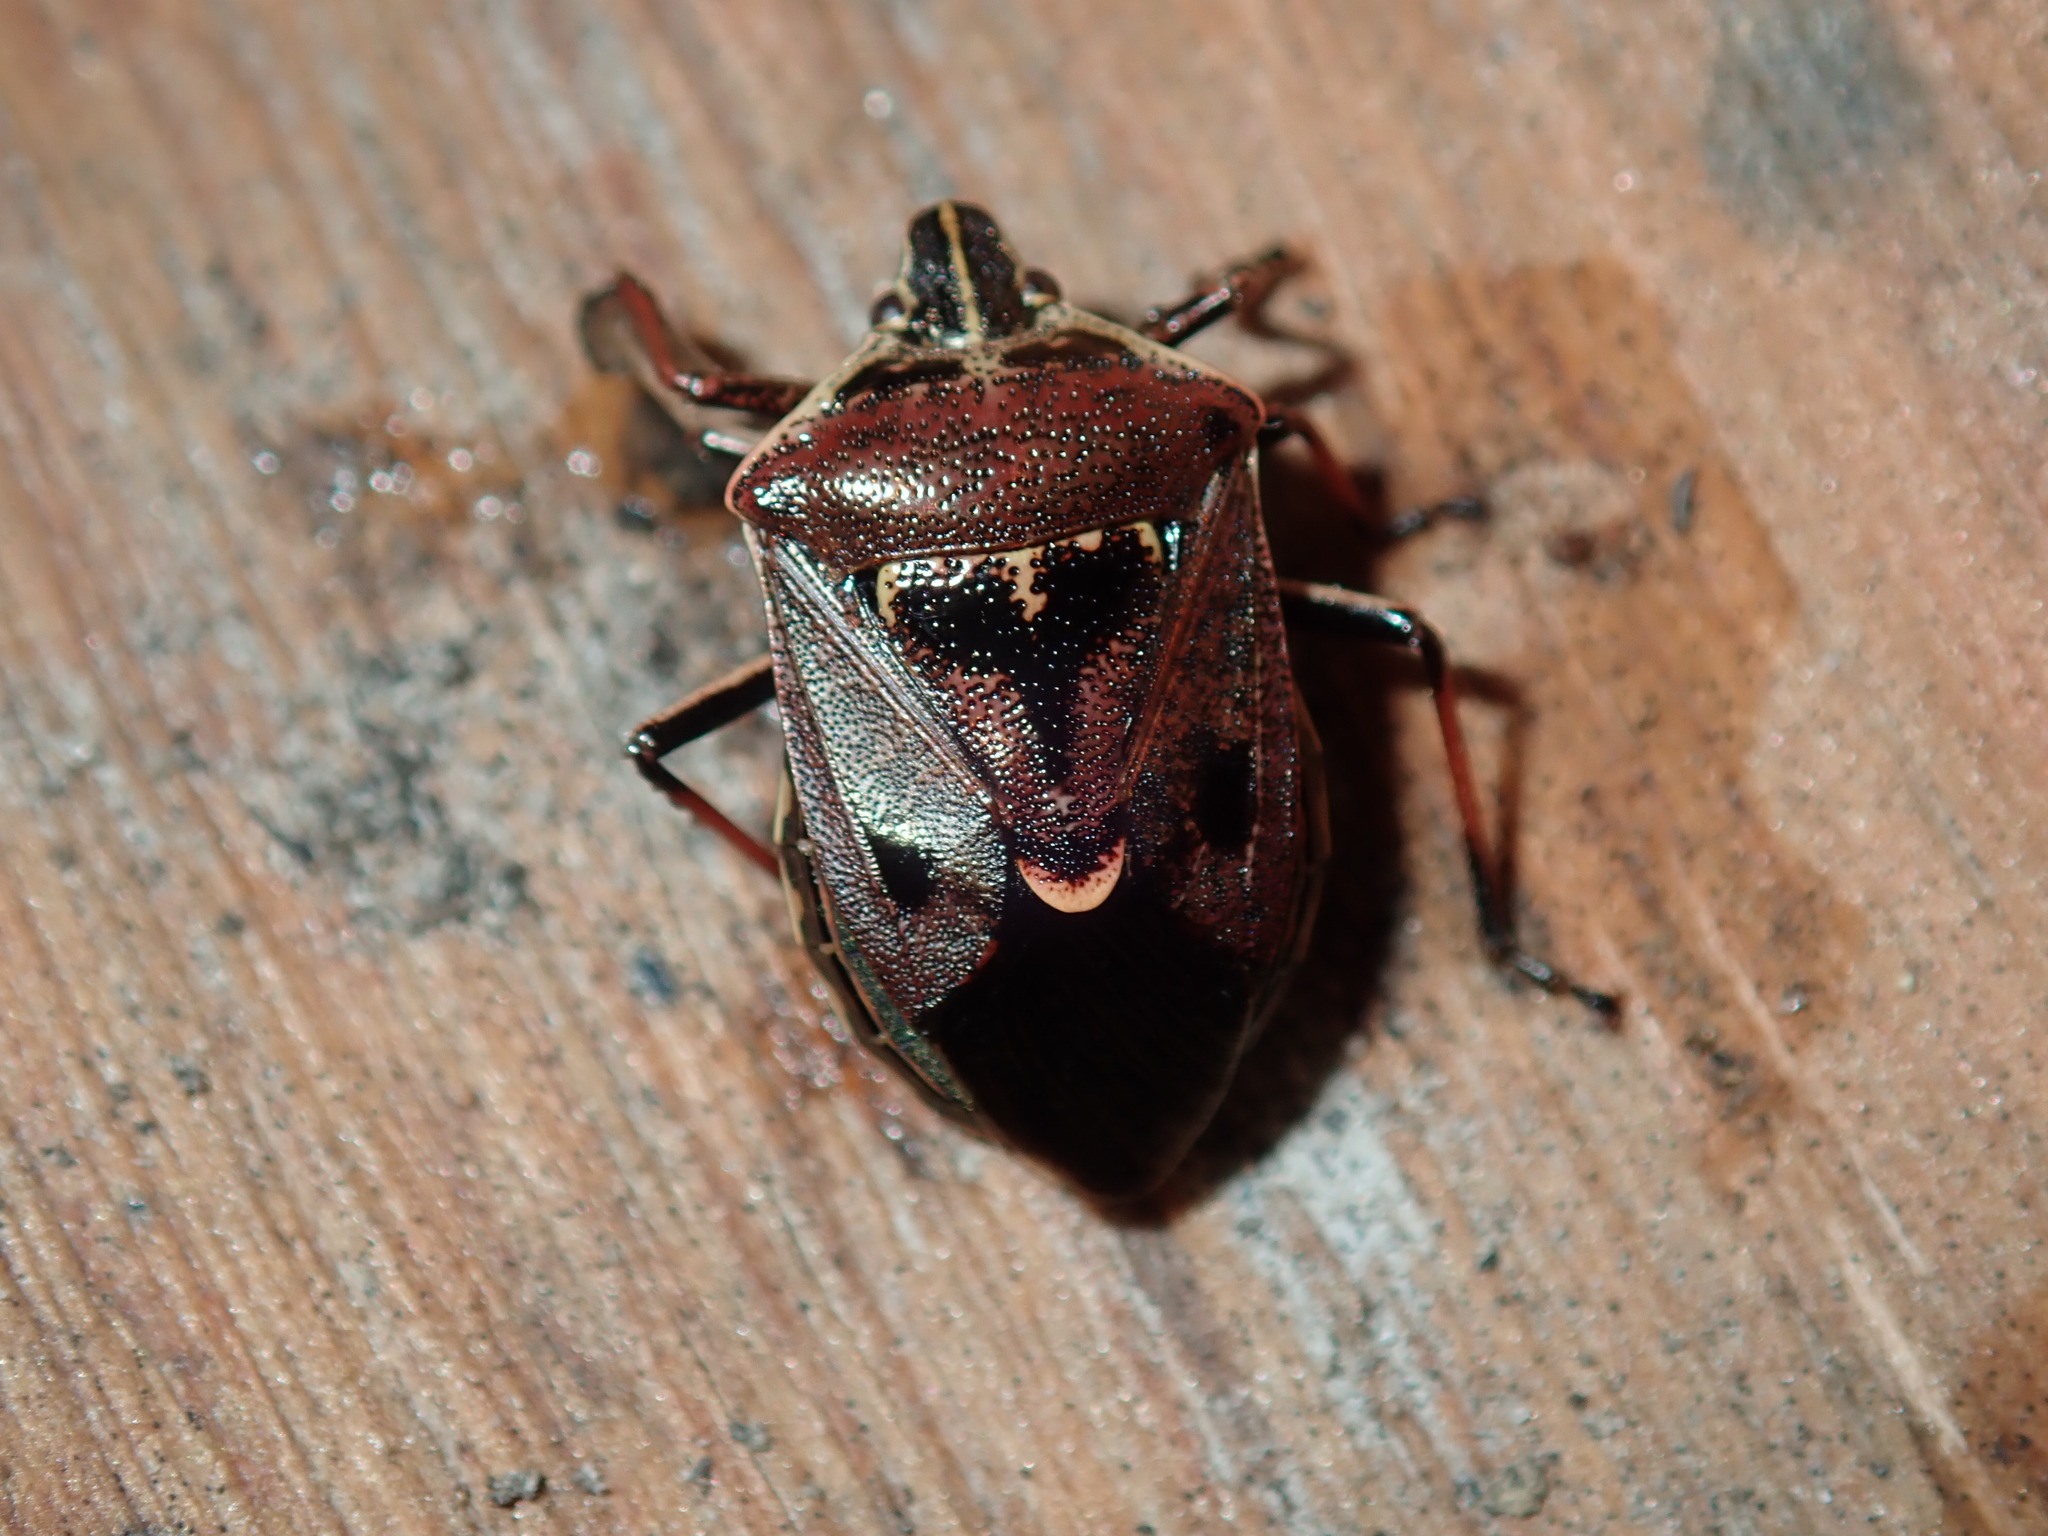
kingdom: Animalia
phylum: Arthropoda
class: Insecta
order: Hemiptera
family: Pentatomidae
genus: Cermatulus
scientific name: Cermatulus nasalis
